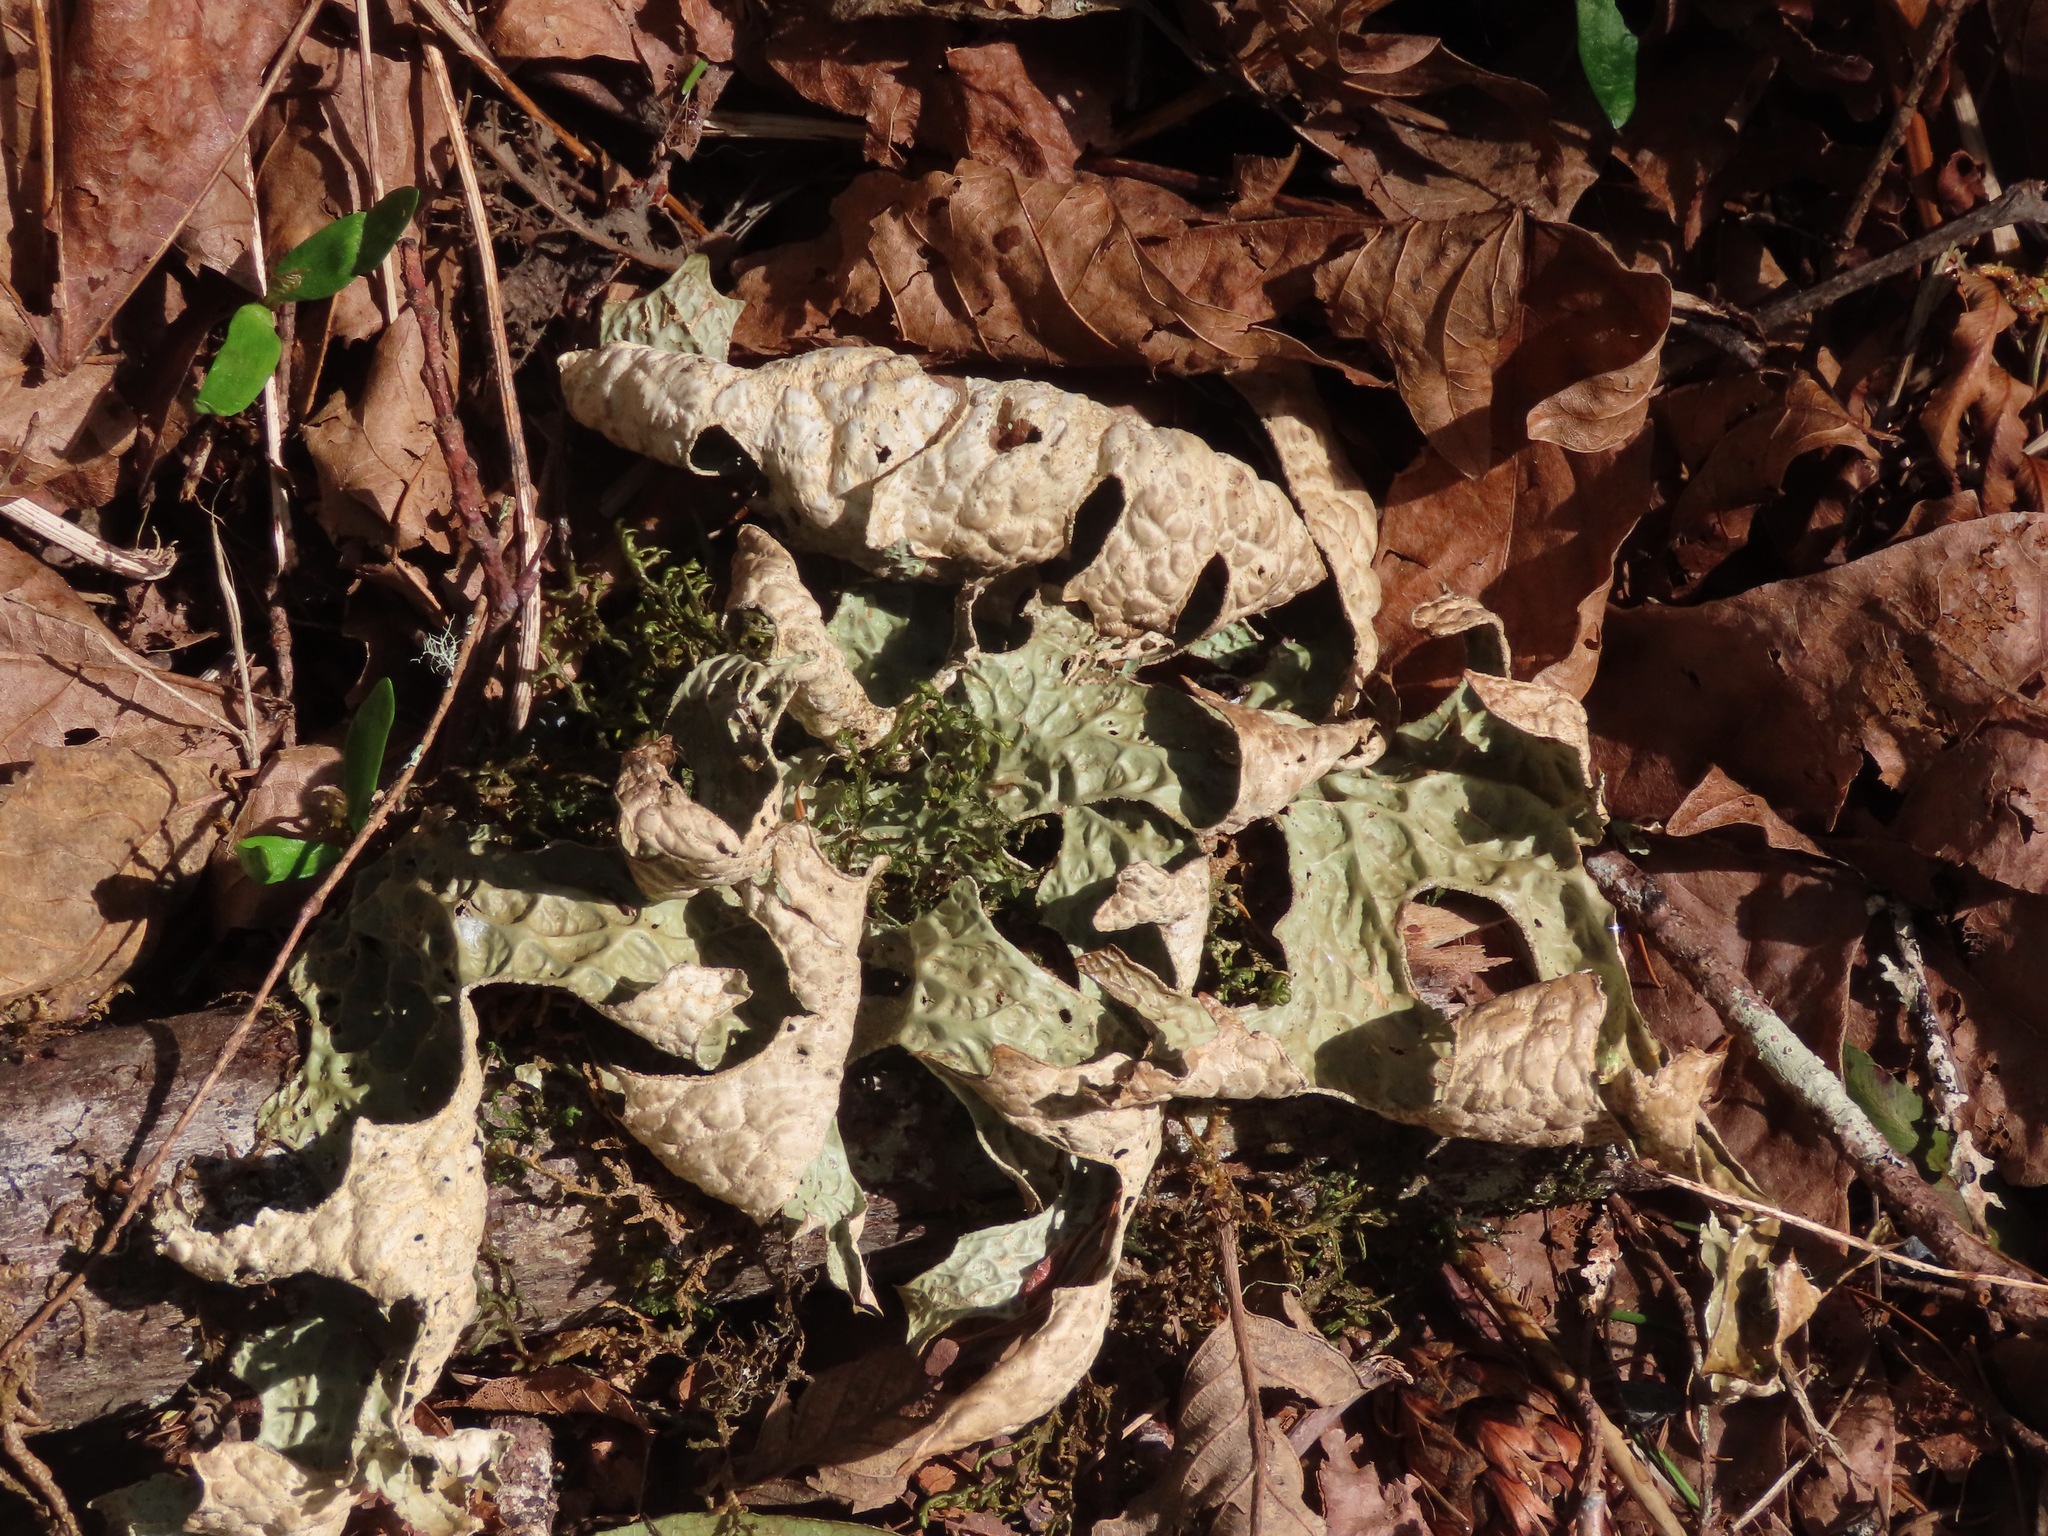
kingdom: Fungi
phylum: Ascomycota
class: Lecanoromycetes
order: Peltigerales
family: Lobariaceae
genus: Lobaria
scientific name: Lobaria pulmonaria
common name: Lungwort
